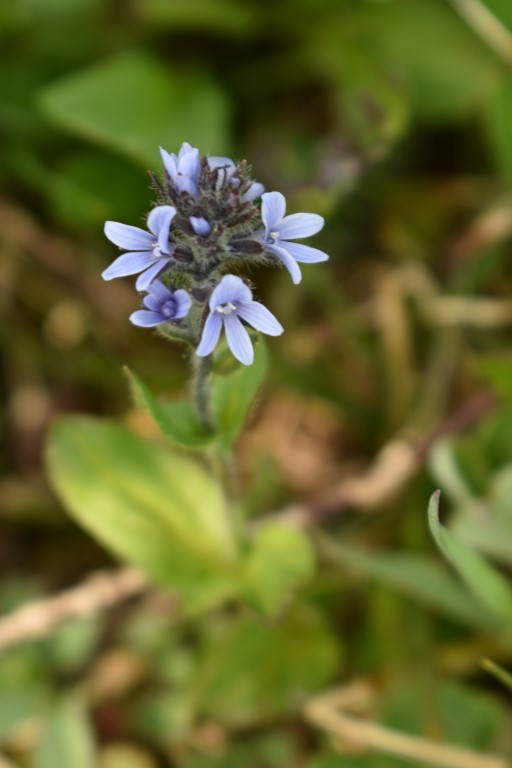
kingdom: Plantae
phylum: Tracheophyta
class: Magnoliopsida
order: Lamiales
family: Plantaginaceae
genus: Veronica
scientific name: Veronica wormskjoldii
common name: American alpine speedwell
